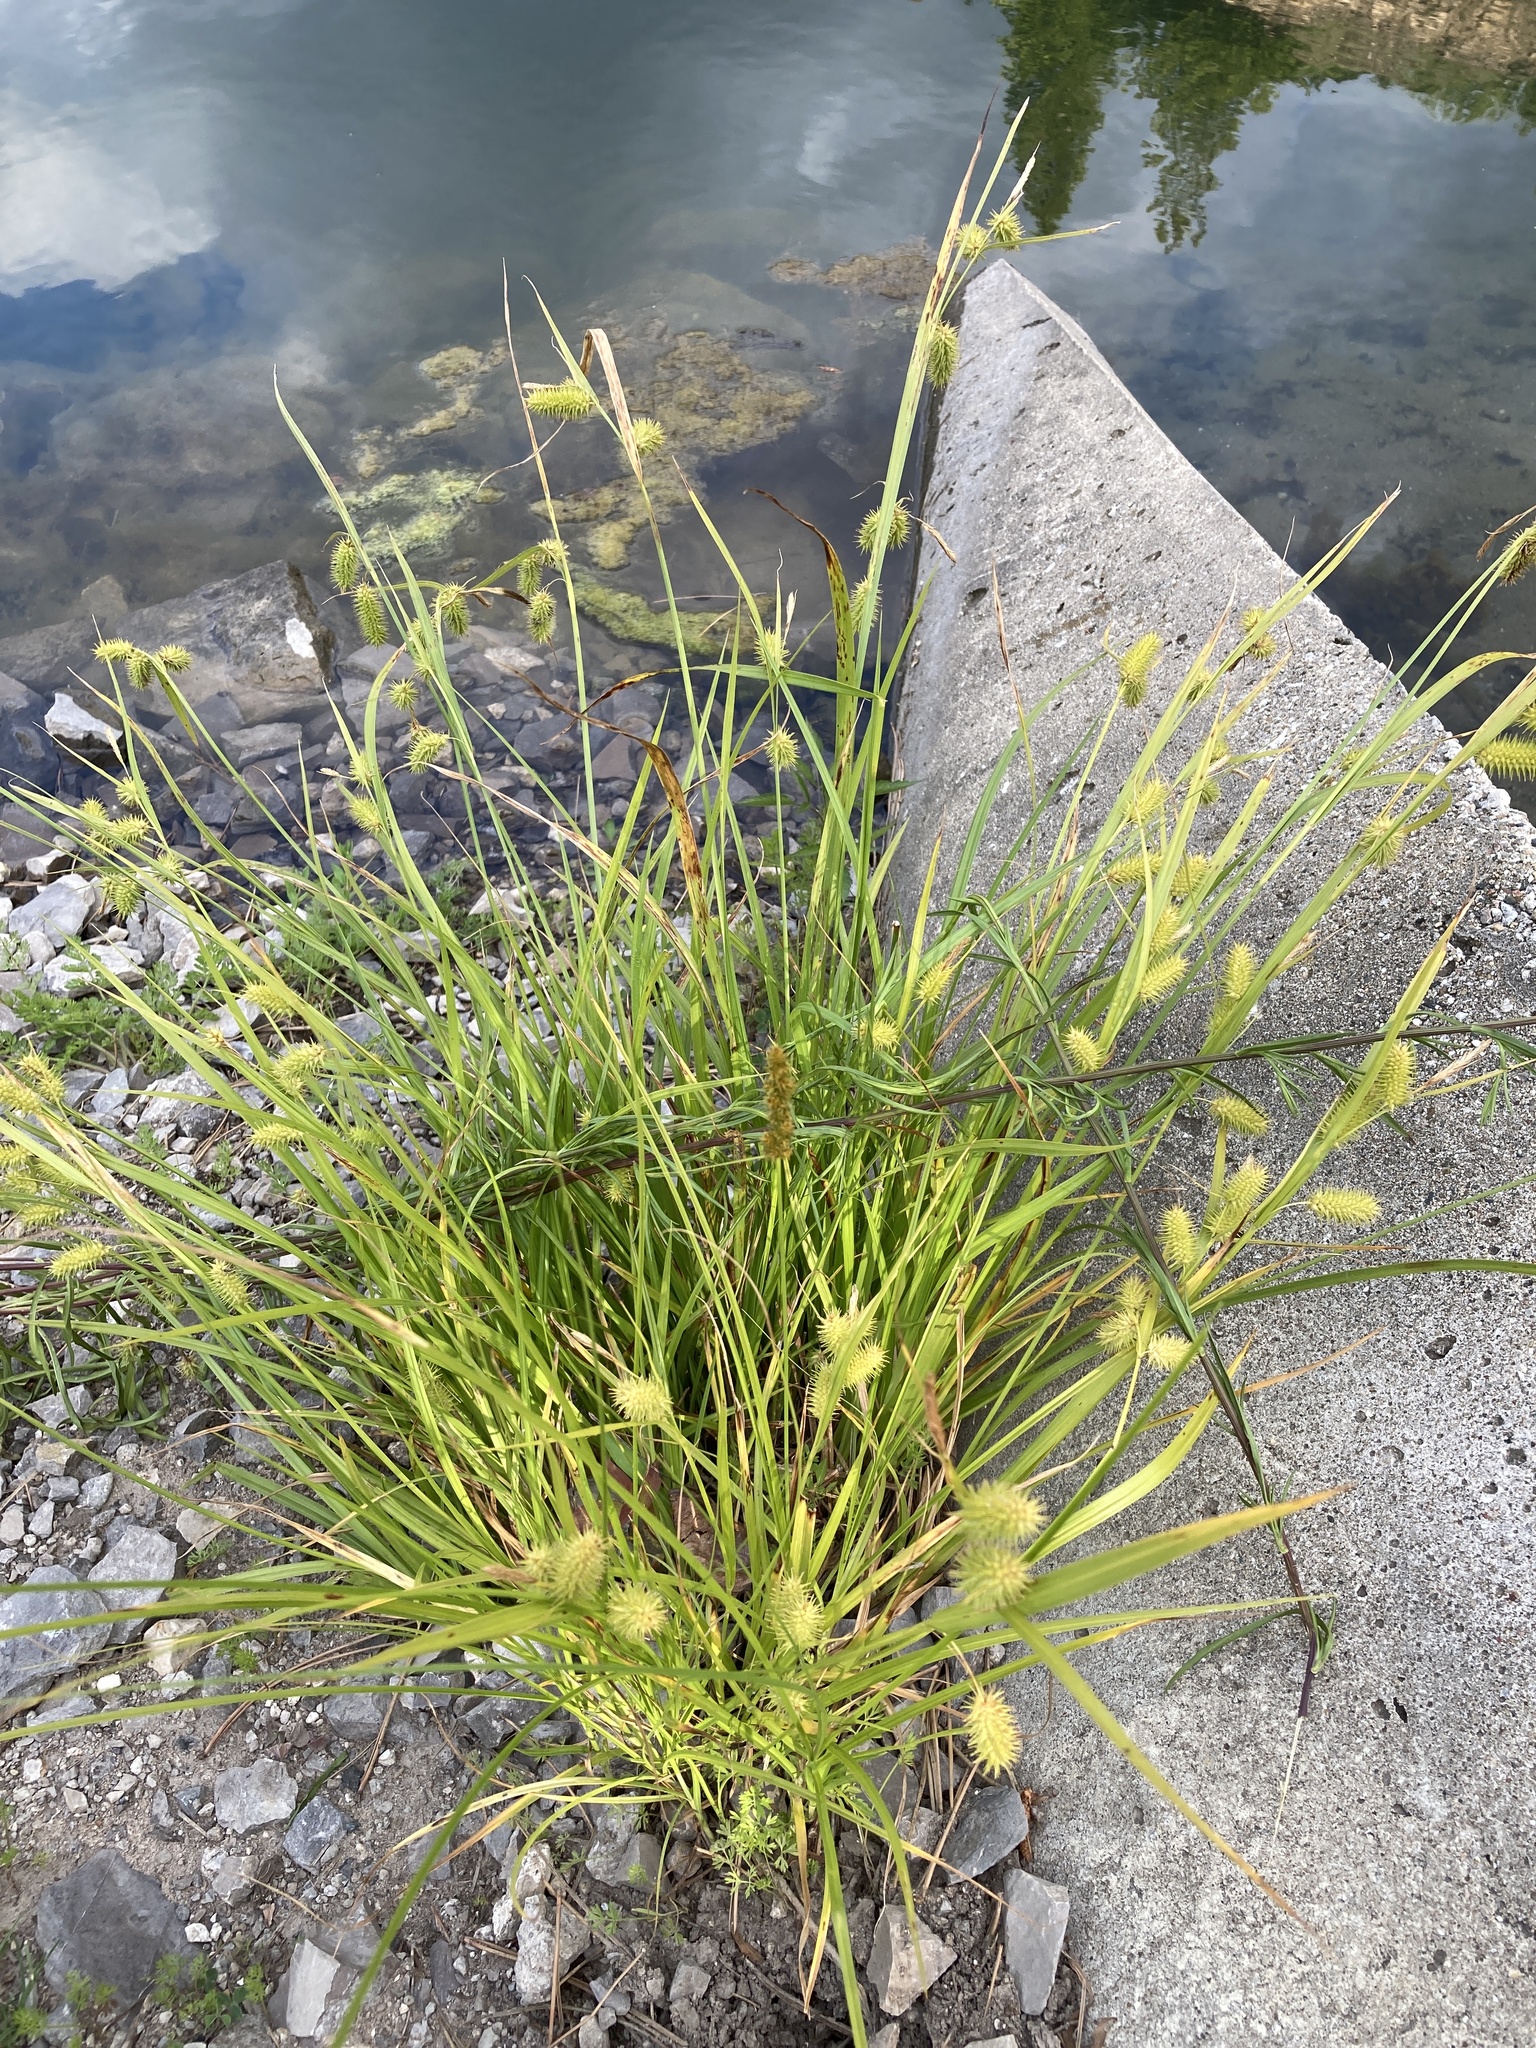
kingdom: Plantae
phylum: Tracheophyta
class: Liliopsida
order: Poales
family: Cyperaceae
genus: Carex
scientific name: Carex hystericina
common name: Bottlebrush sedge
